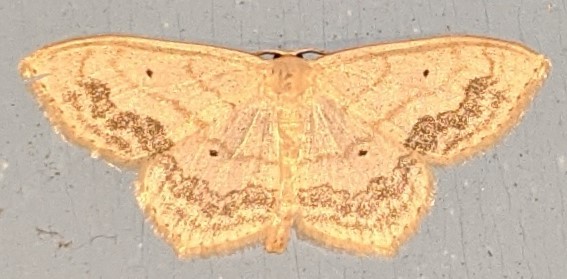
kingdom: Animalia
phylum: Arthropoda
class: Insecta
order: Lepidoptera
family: Geometridae
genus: Scopula
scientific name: Scopula limboundata
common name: Large lace border
